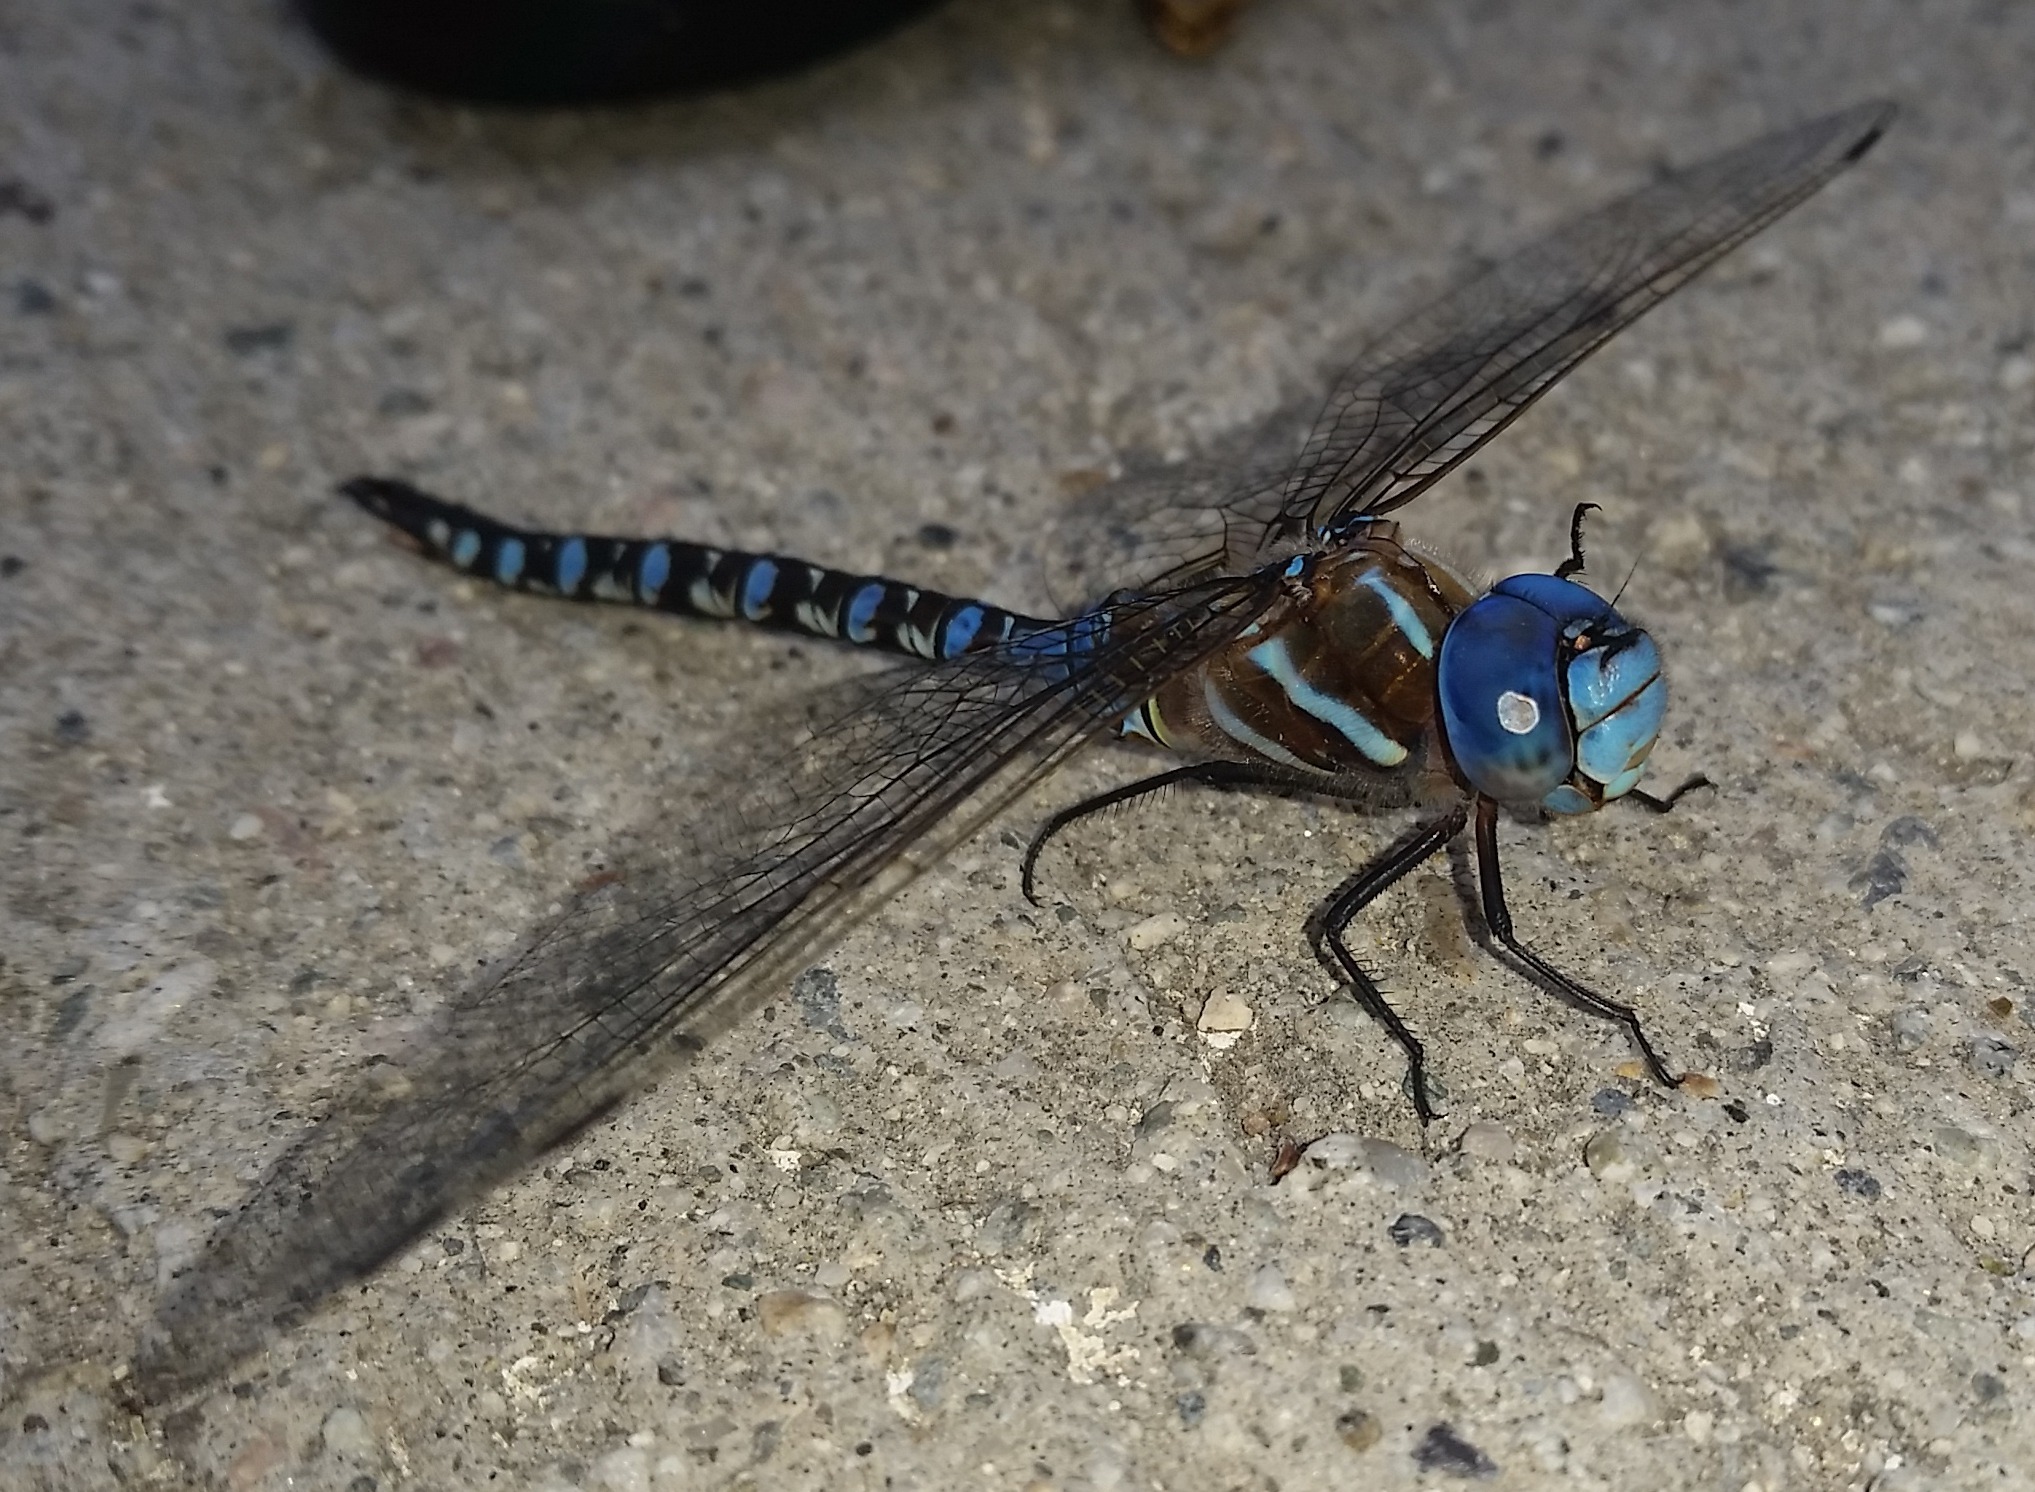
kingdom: Animalia
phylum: Arthropoda
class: Insecta
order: Odonata
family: Aeshnidae
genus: Rhionaeschna
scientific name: Rhionaeschna multicolor
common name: Blue-eyed darner
